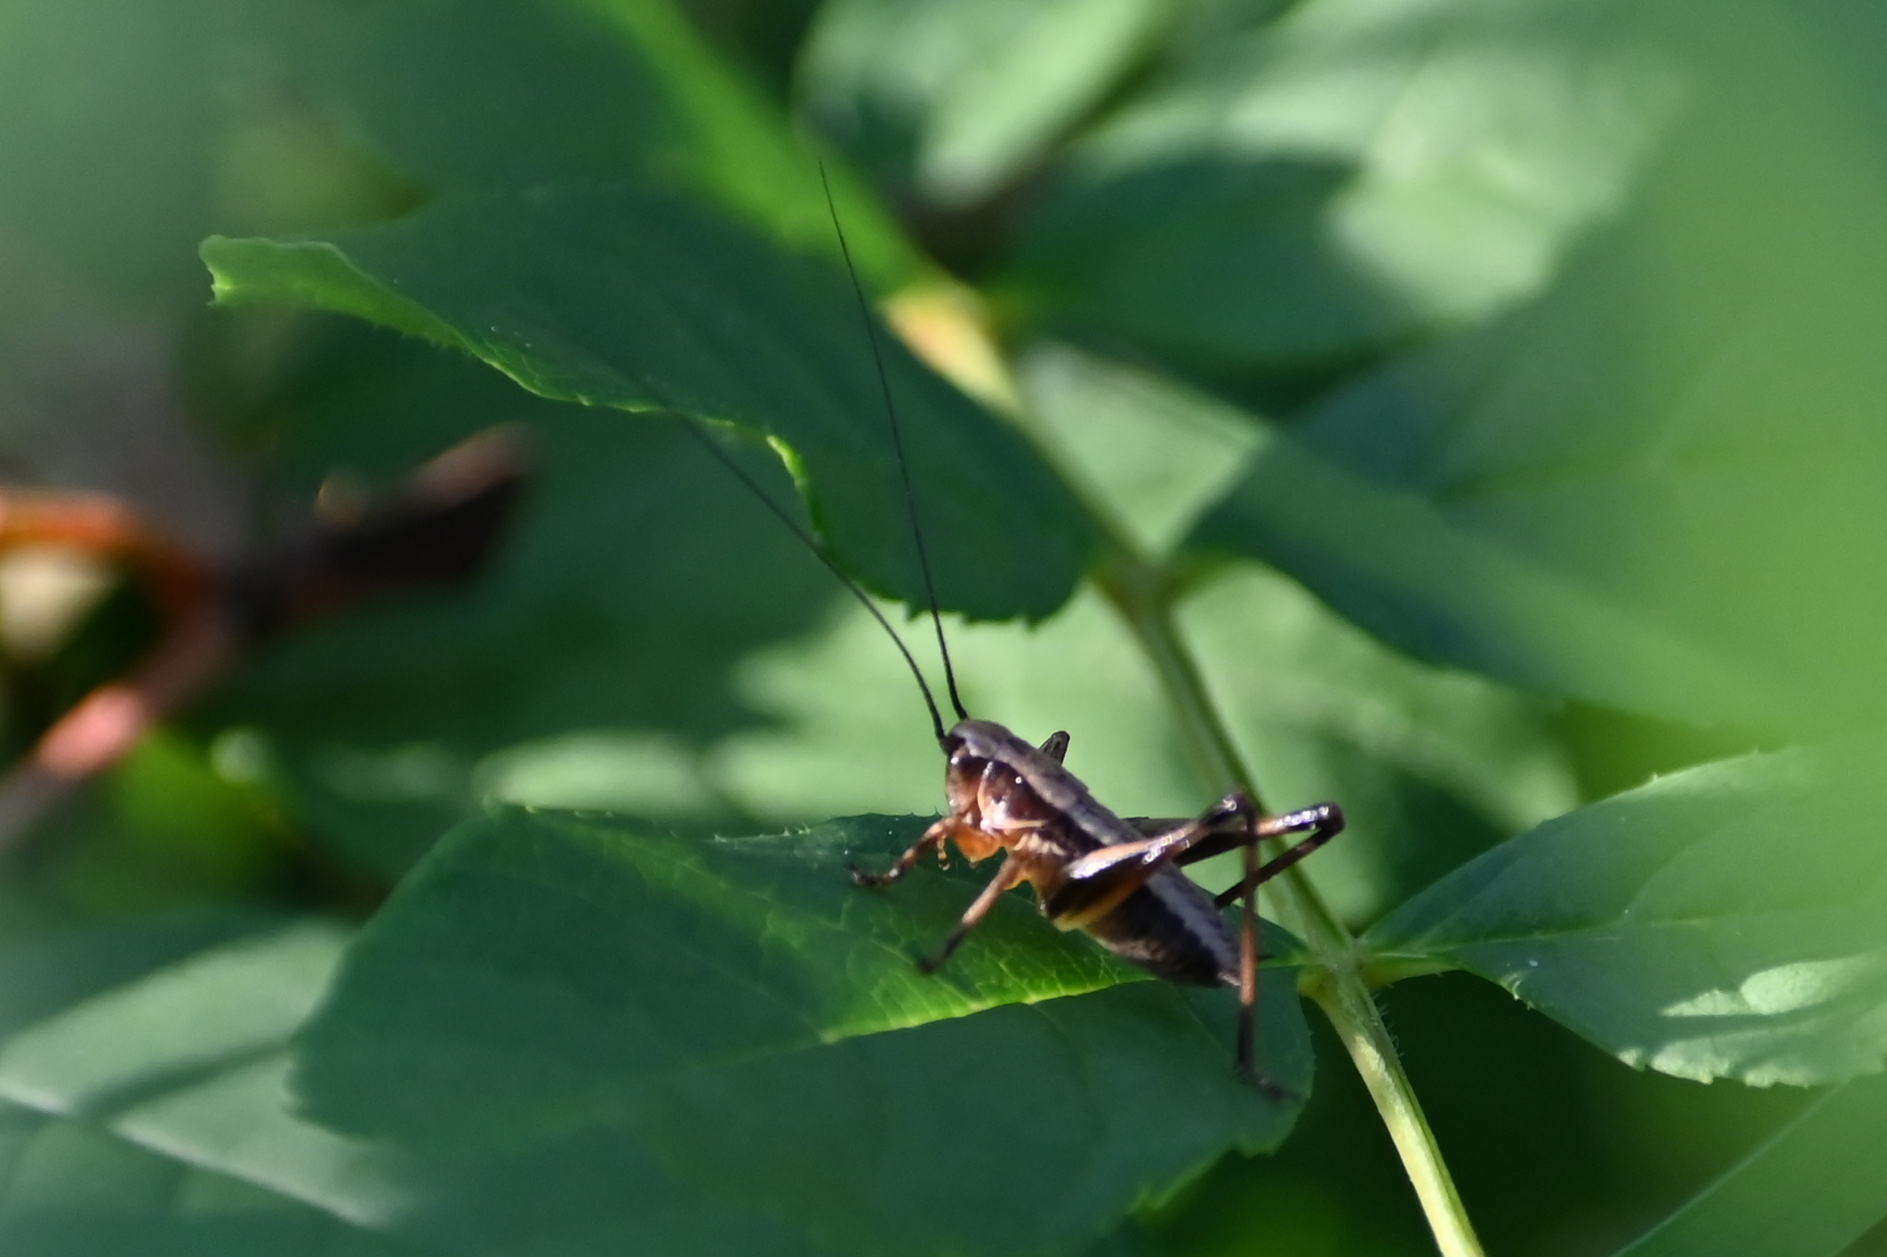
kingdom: Animalia
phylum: Arthropoda
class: Insecta
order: Orthoptera
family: Tettigoniidae
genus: Pholidoptera
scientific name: Pholidoptera griseoaptera
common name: Dark bush-cricket
